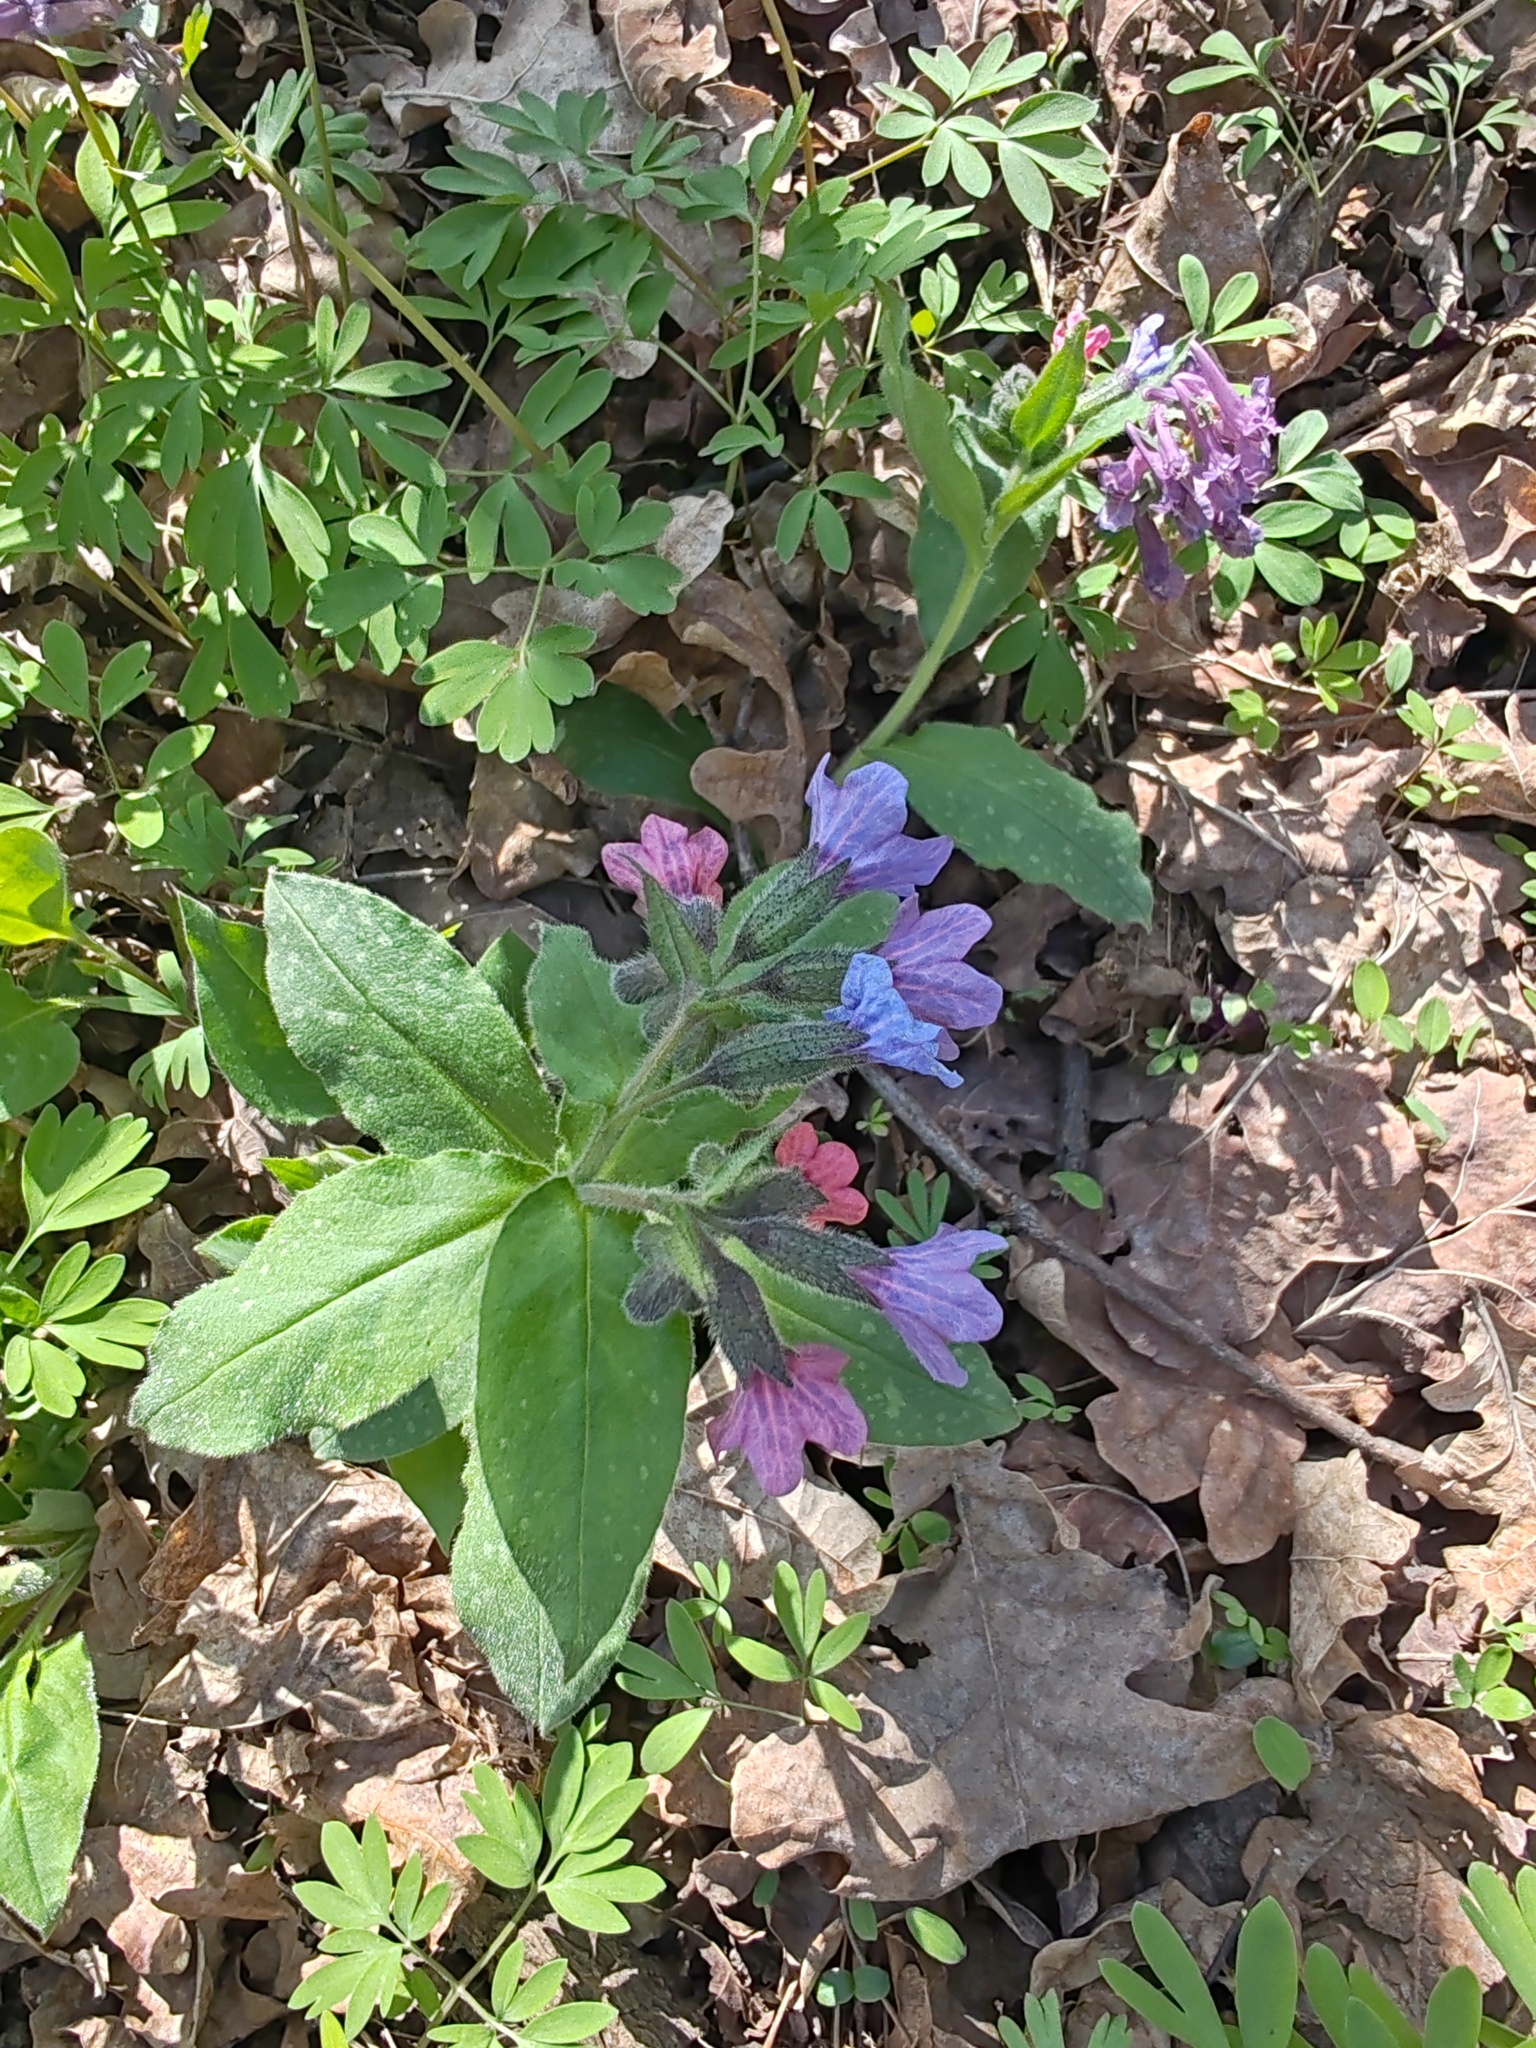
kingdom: Plantae
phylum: Tracheophyta
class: Magnoliopsida
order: Boraginales
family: Boraginaceae
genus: Pulmonaria
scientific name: Pulmonaria obscura
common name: Suffolk lungwort
